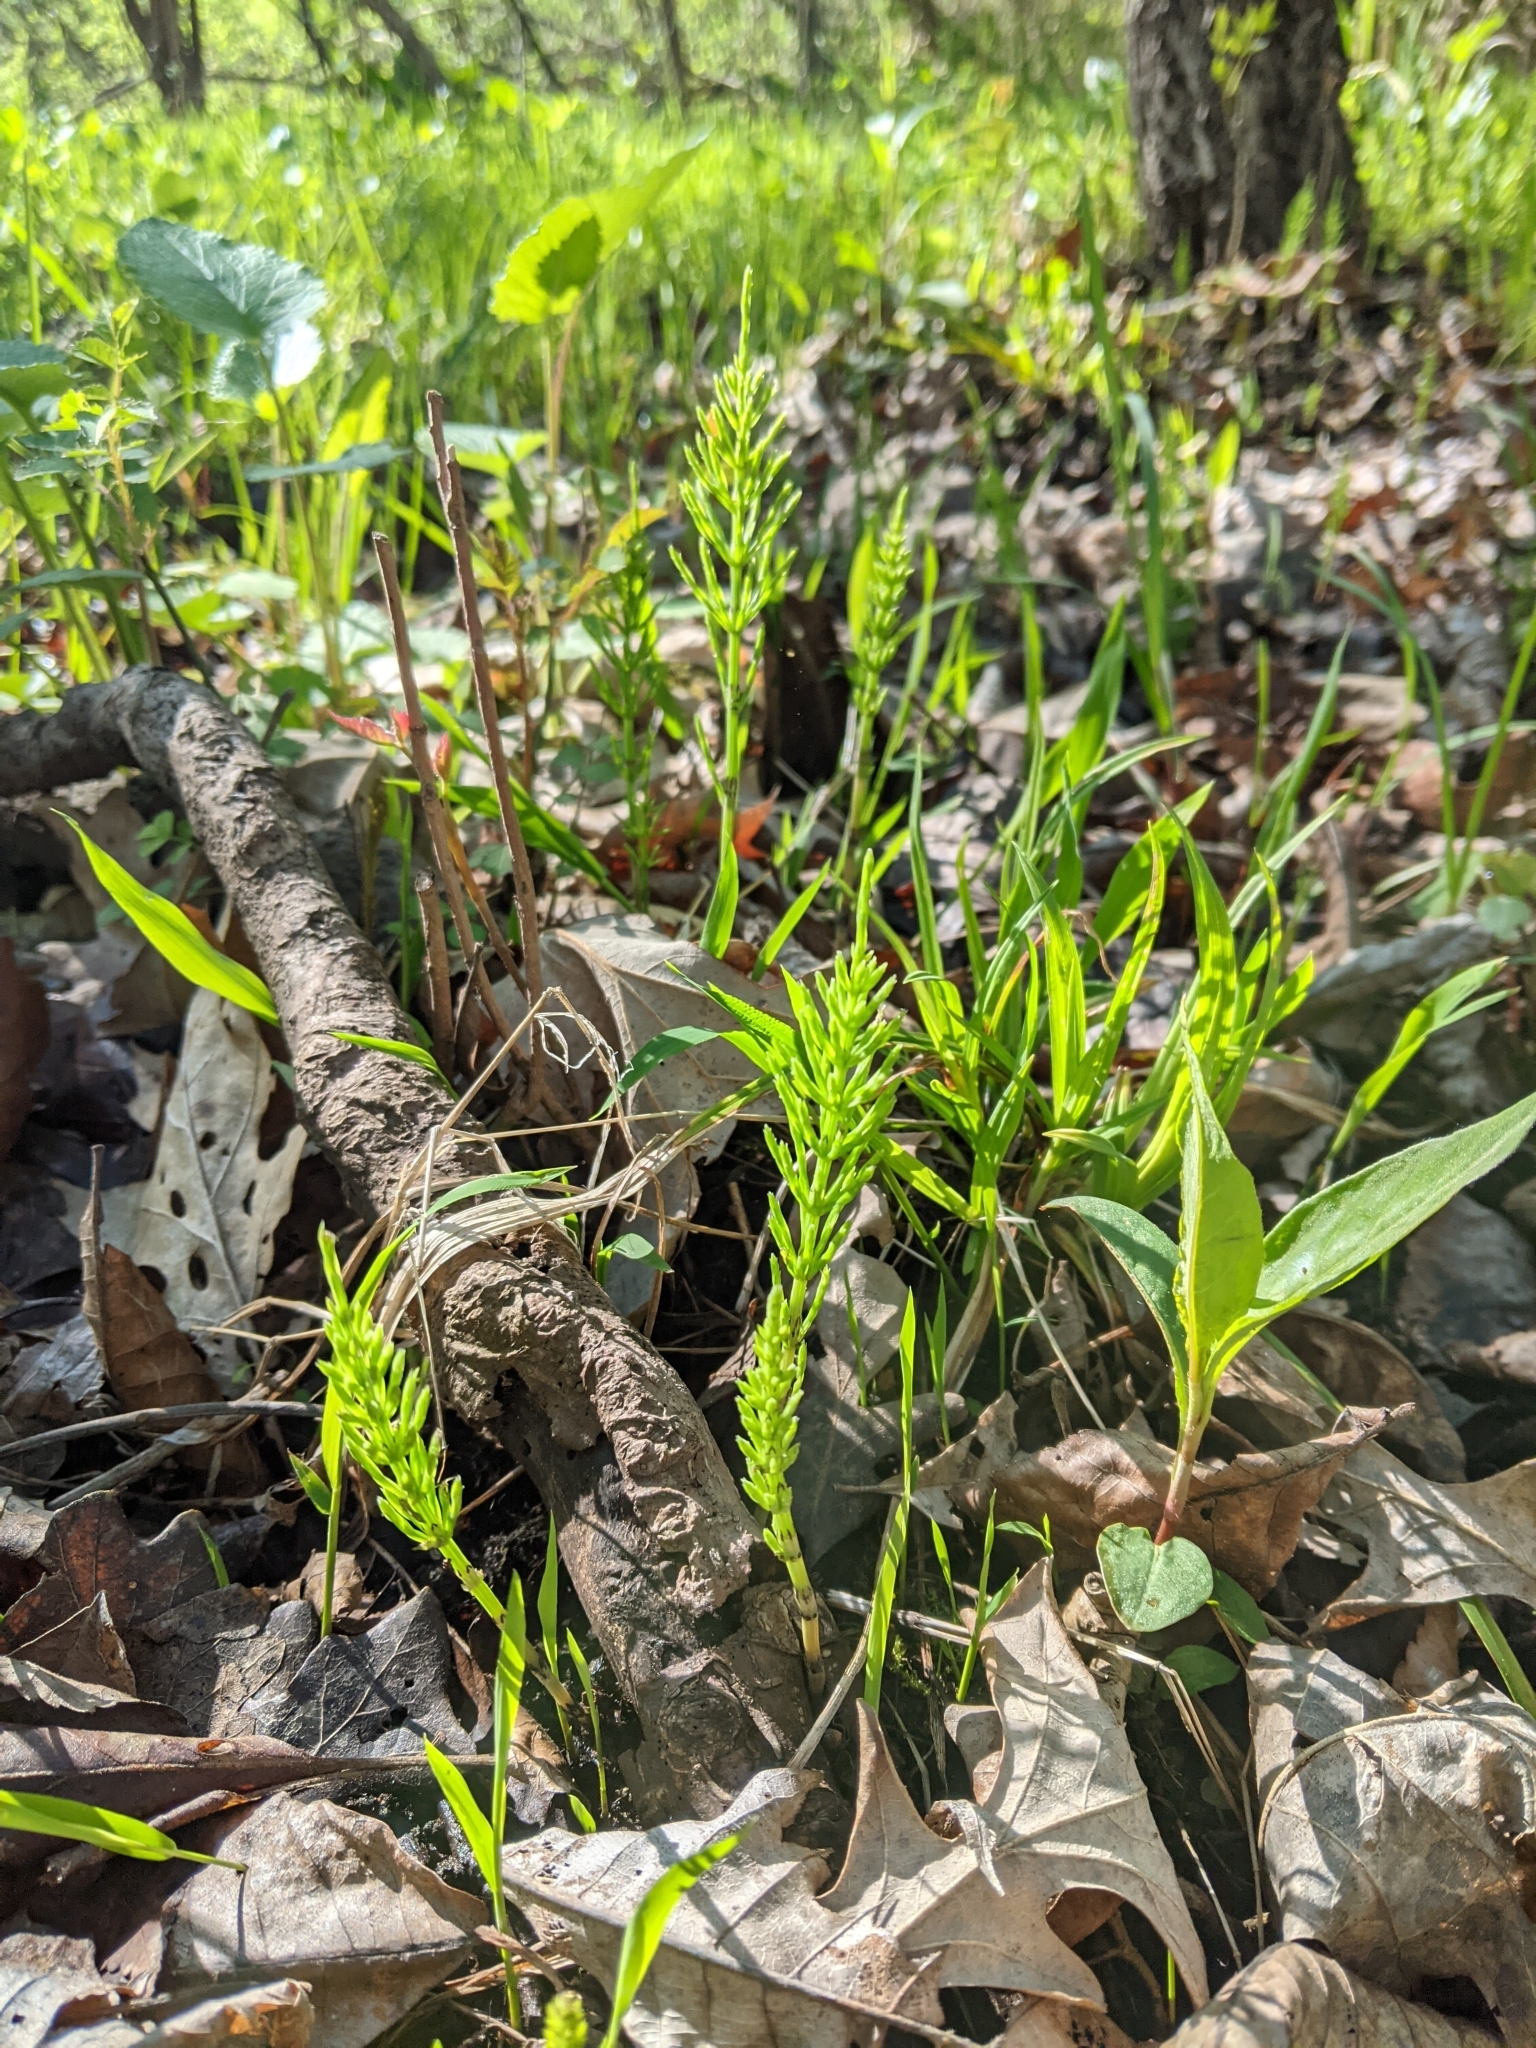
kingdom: Plantae
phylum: Tracheophyta
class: Polypodiopsida
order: Equisetales
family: Equisetaceae
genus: Equisetum
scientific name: Equisetum arvense
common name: Field horsetail
